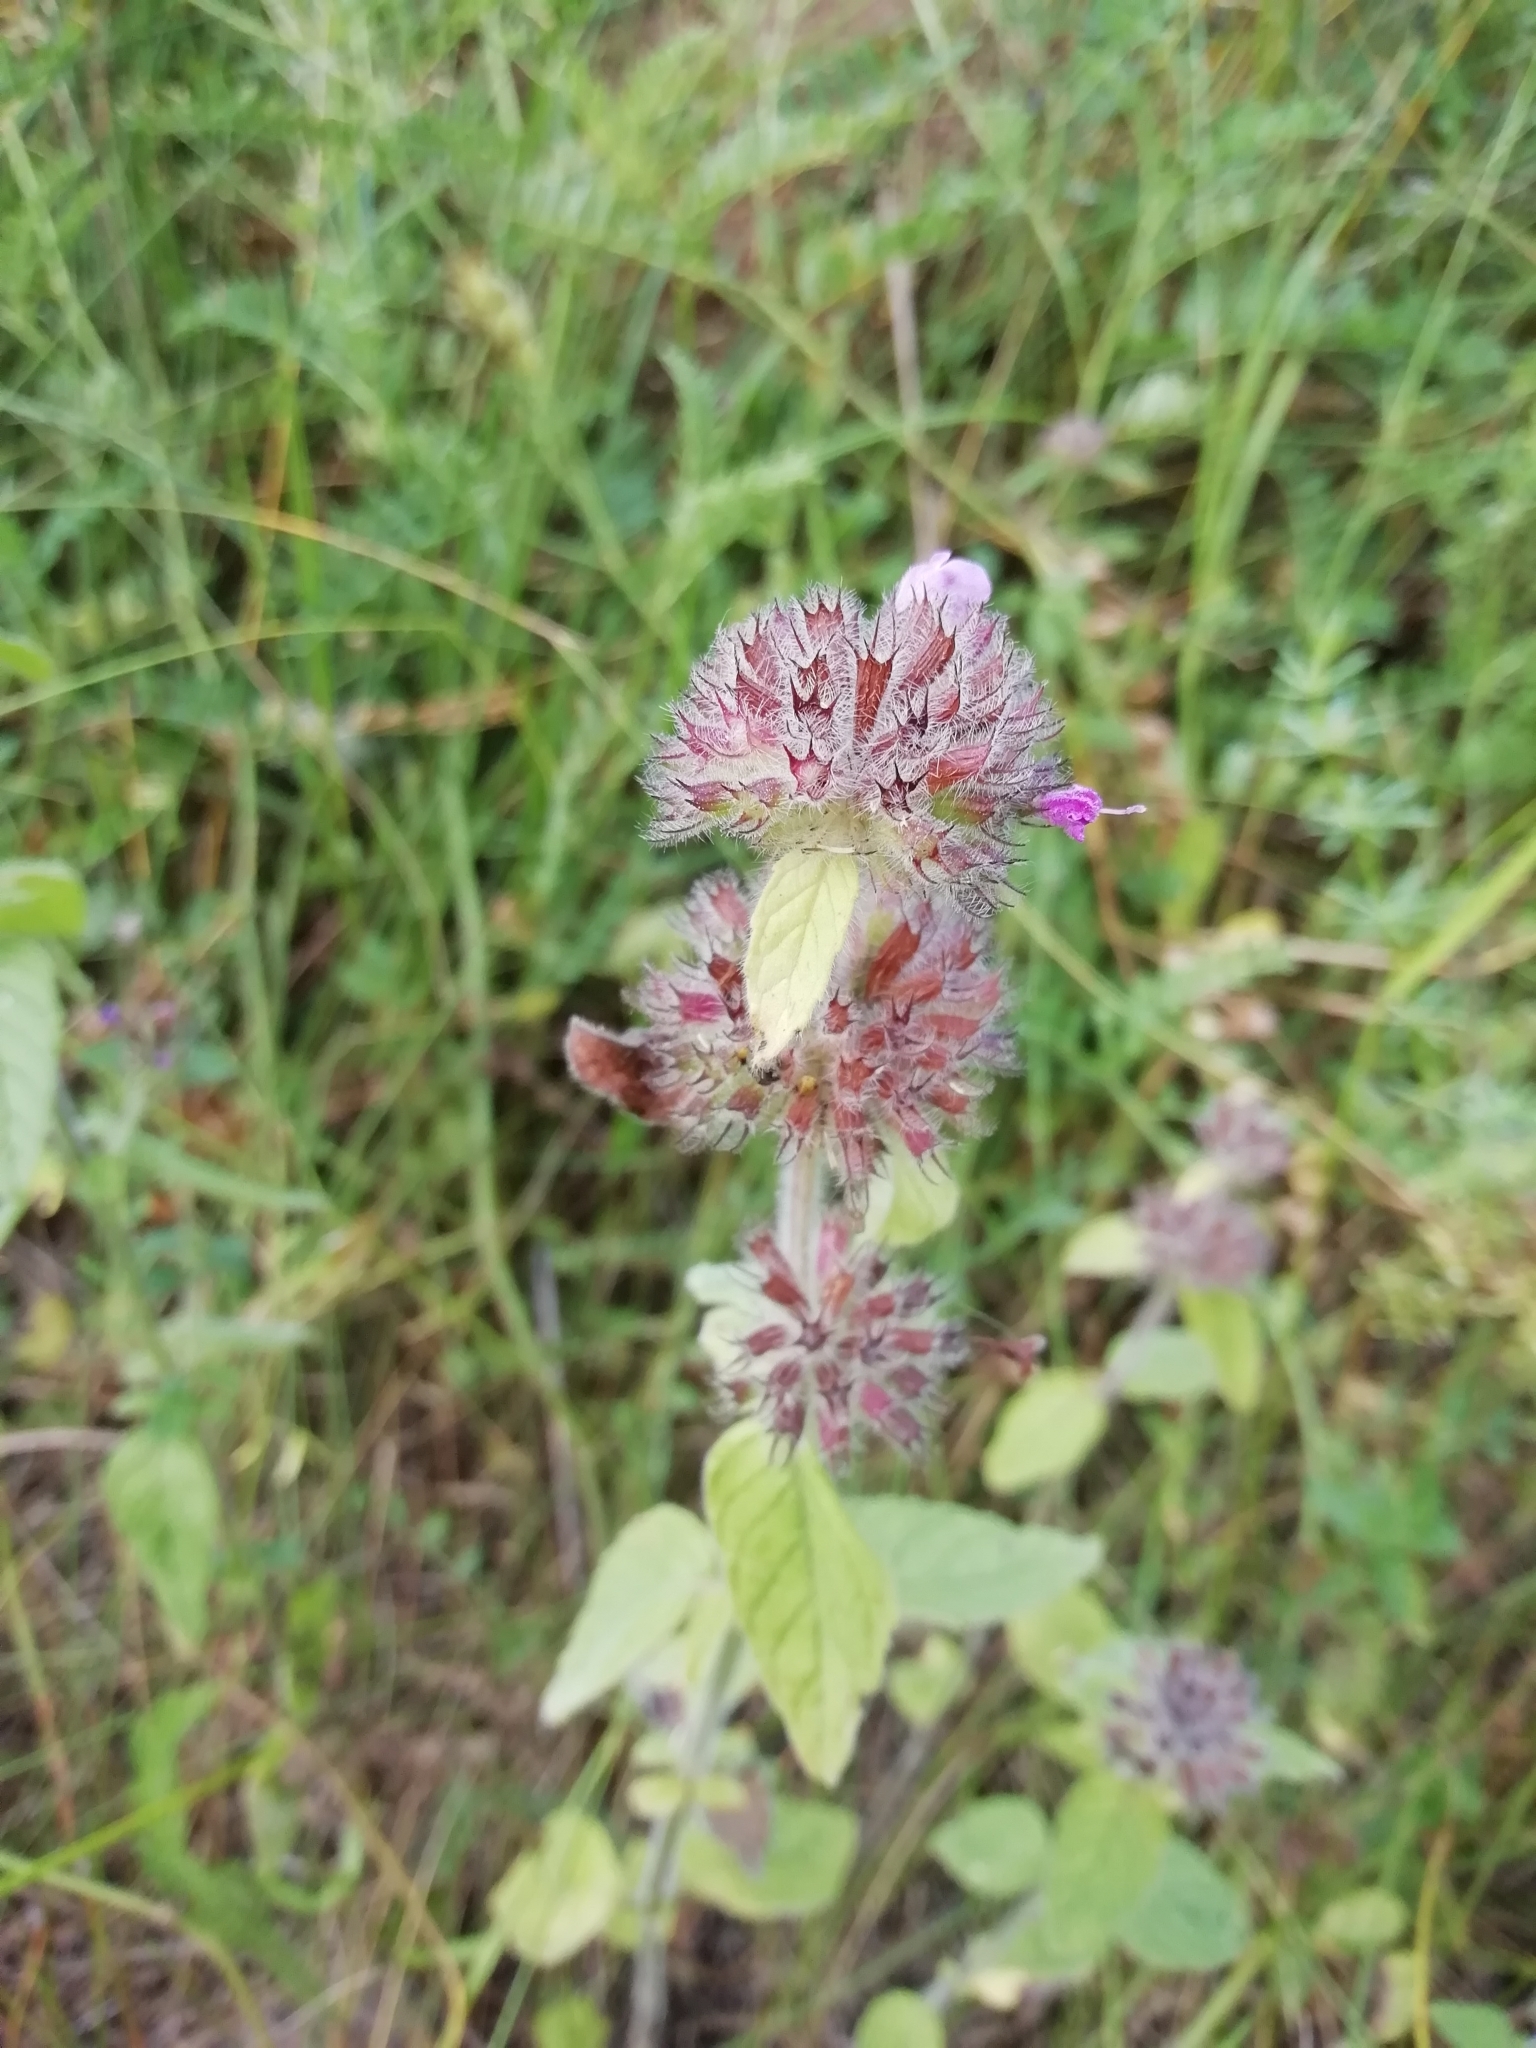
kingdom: Plantae
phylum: Tracheophyta
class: Magnoliopsida
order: Lamiales
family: Lamiaceae
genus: Clinopodium
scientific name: Clinopodium vulgare
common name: Wild basil
